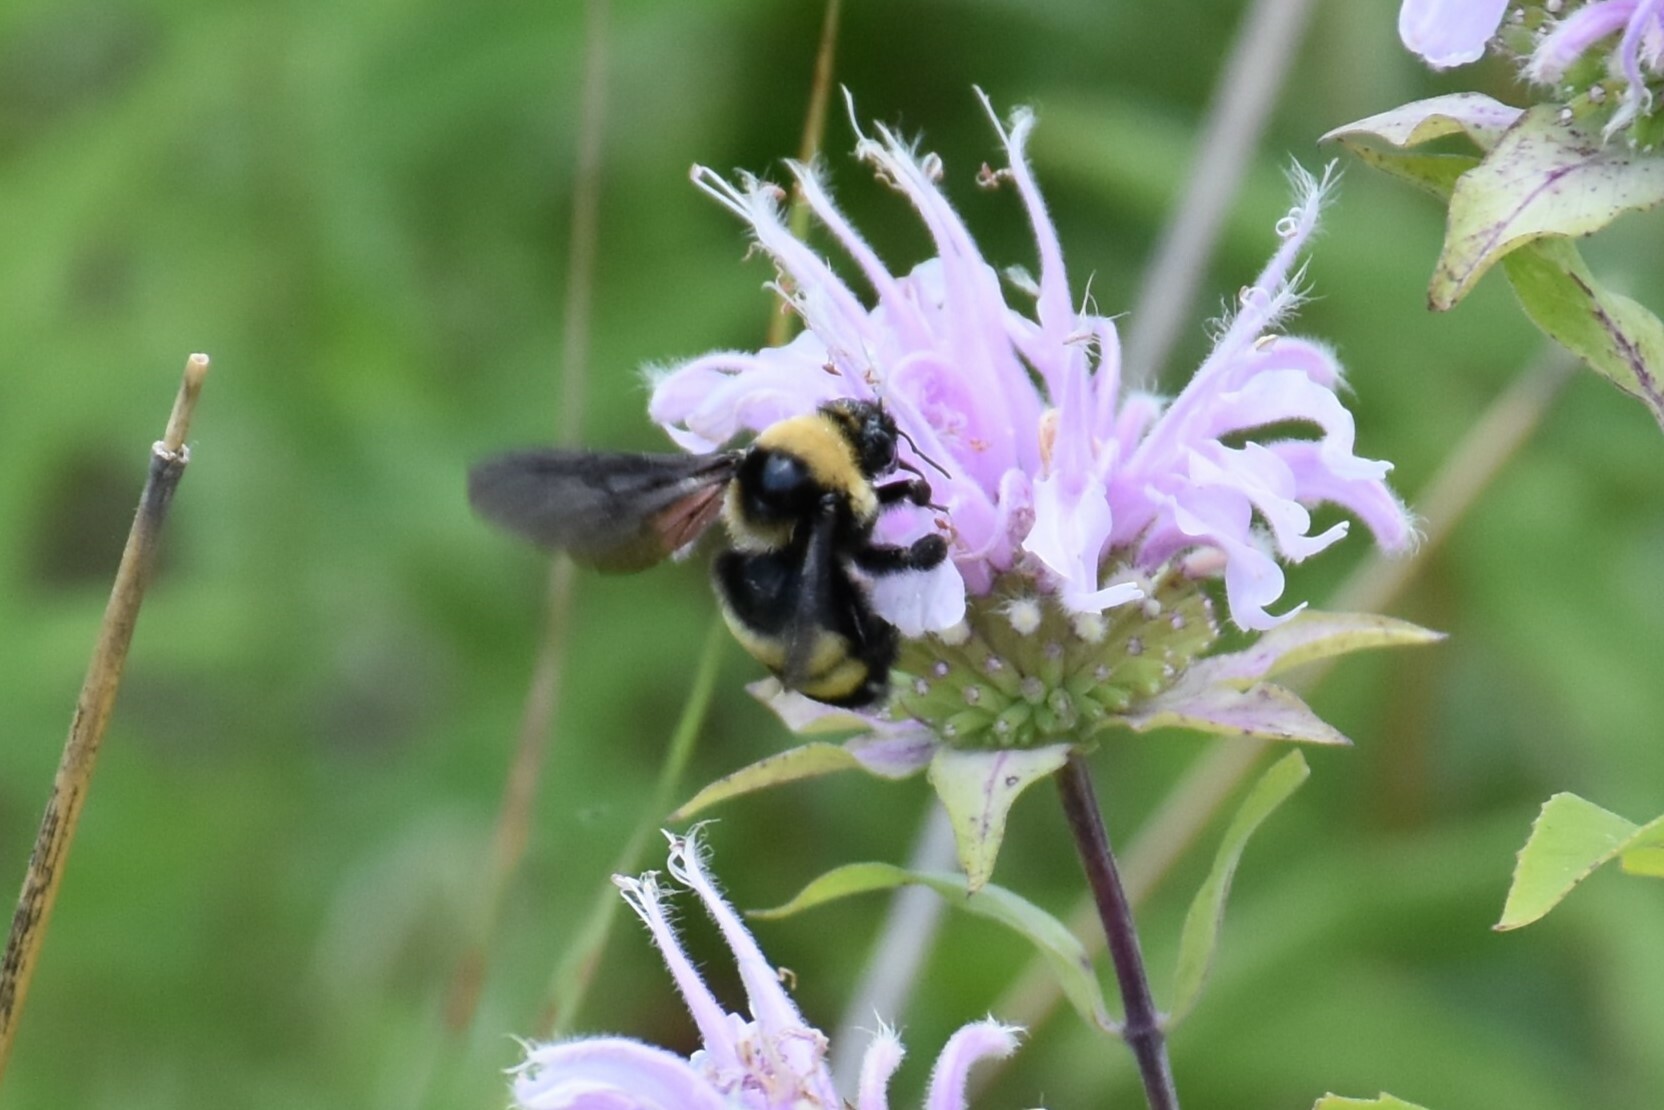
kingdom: Animalia
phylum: Arthropoda
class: Insecta
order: Hymenoptera
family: Apidae
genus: Bombus
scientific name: Bombus auricomus
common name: Black and gold bumble bee
